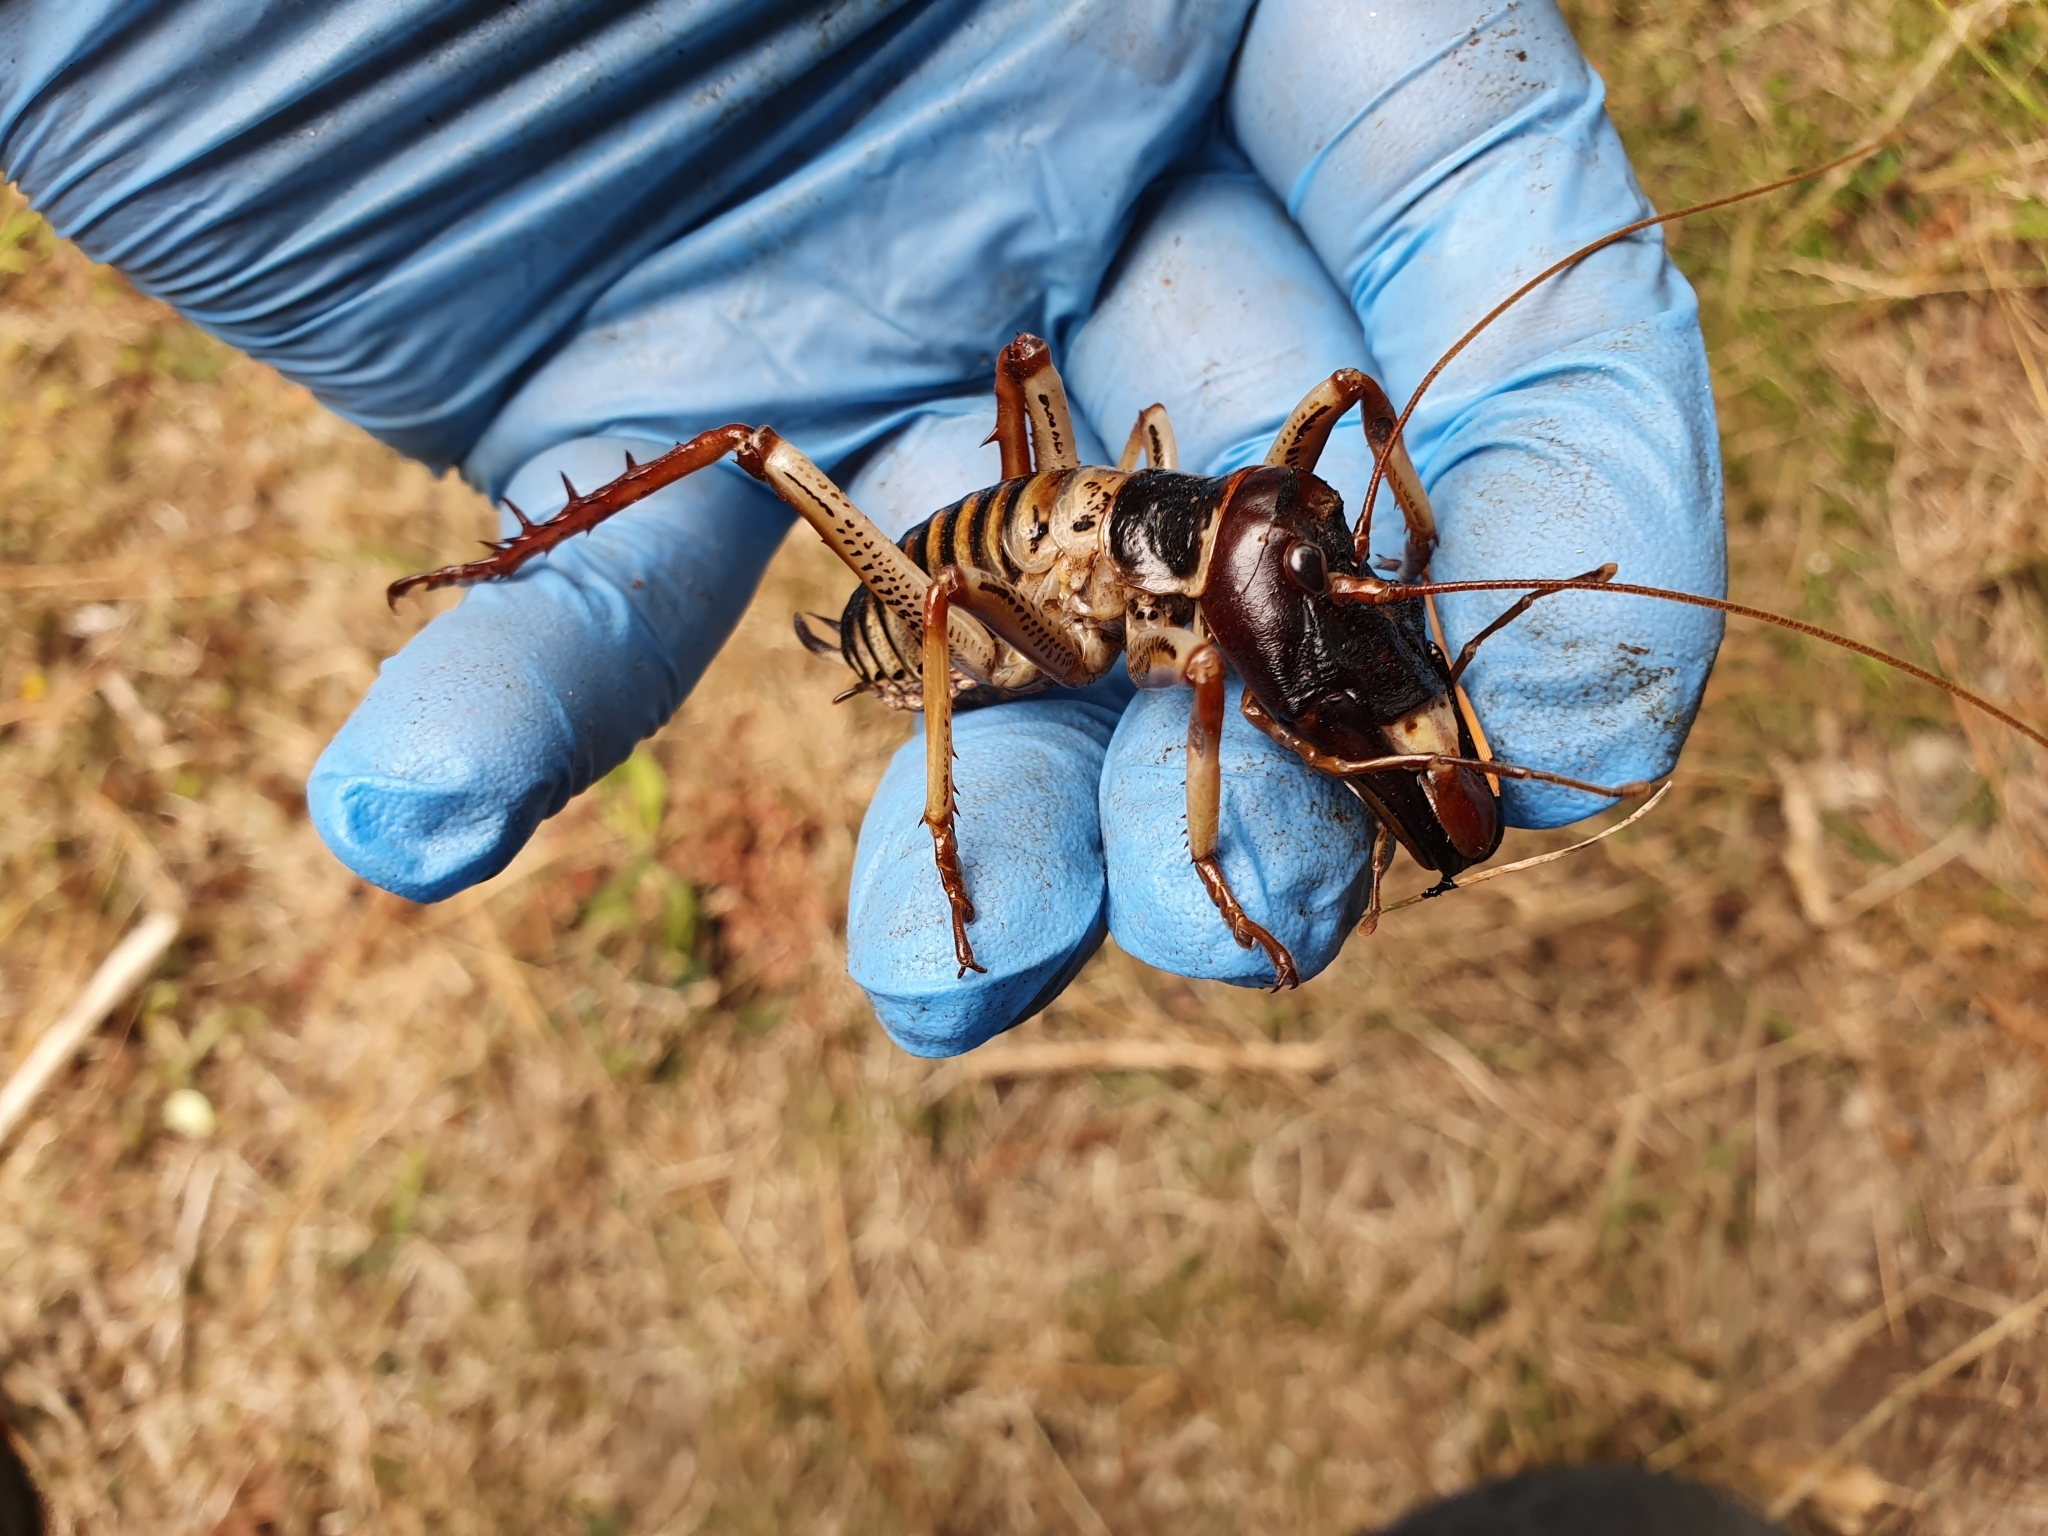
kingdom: Animalia
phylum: Arthropoda
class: Insecta
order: Orthoptera
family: Anostostomatidae
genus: Hemideina
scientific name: Hemideina crassidens
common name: Wellington tree weta
